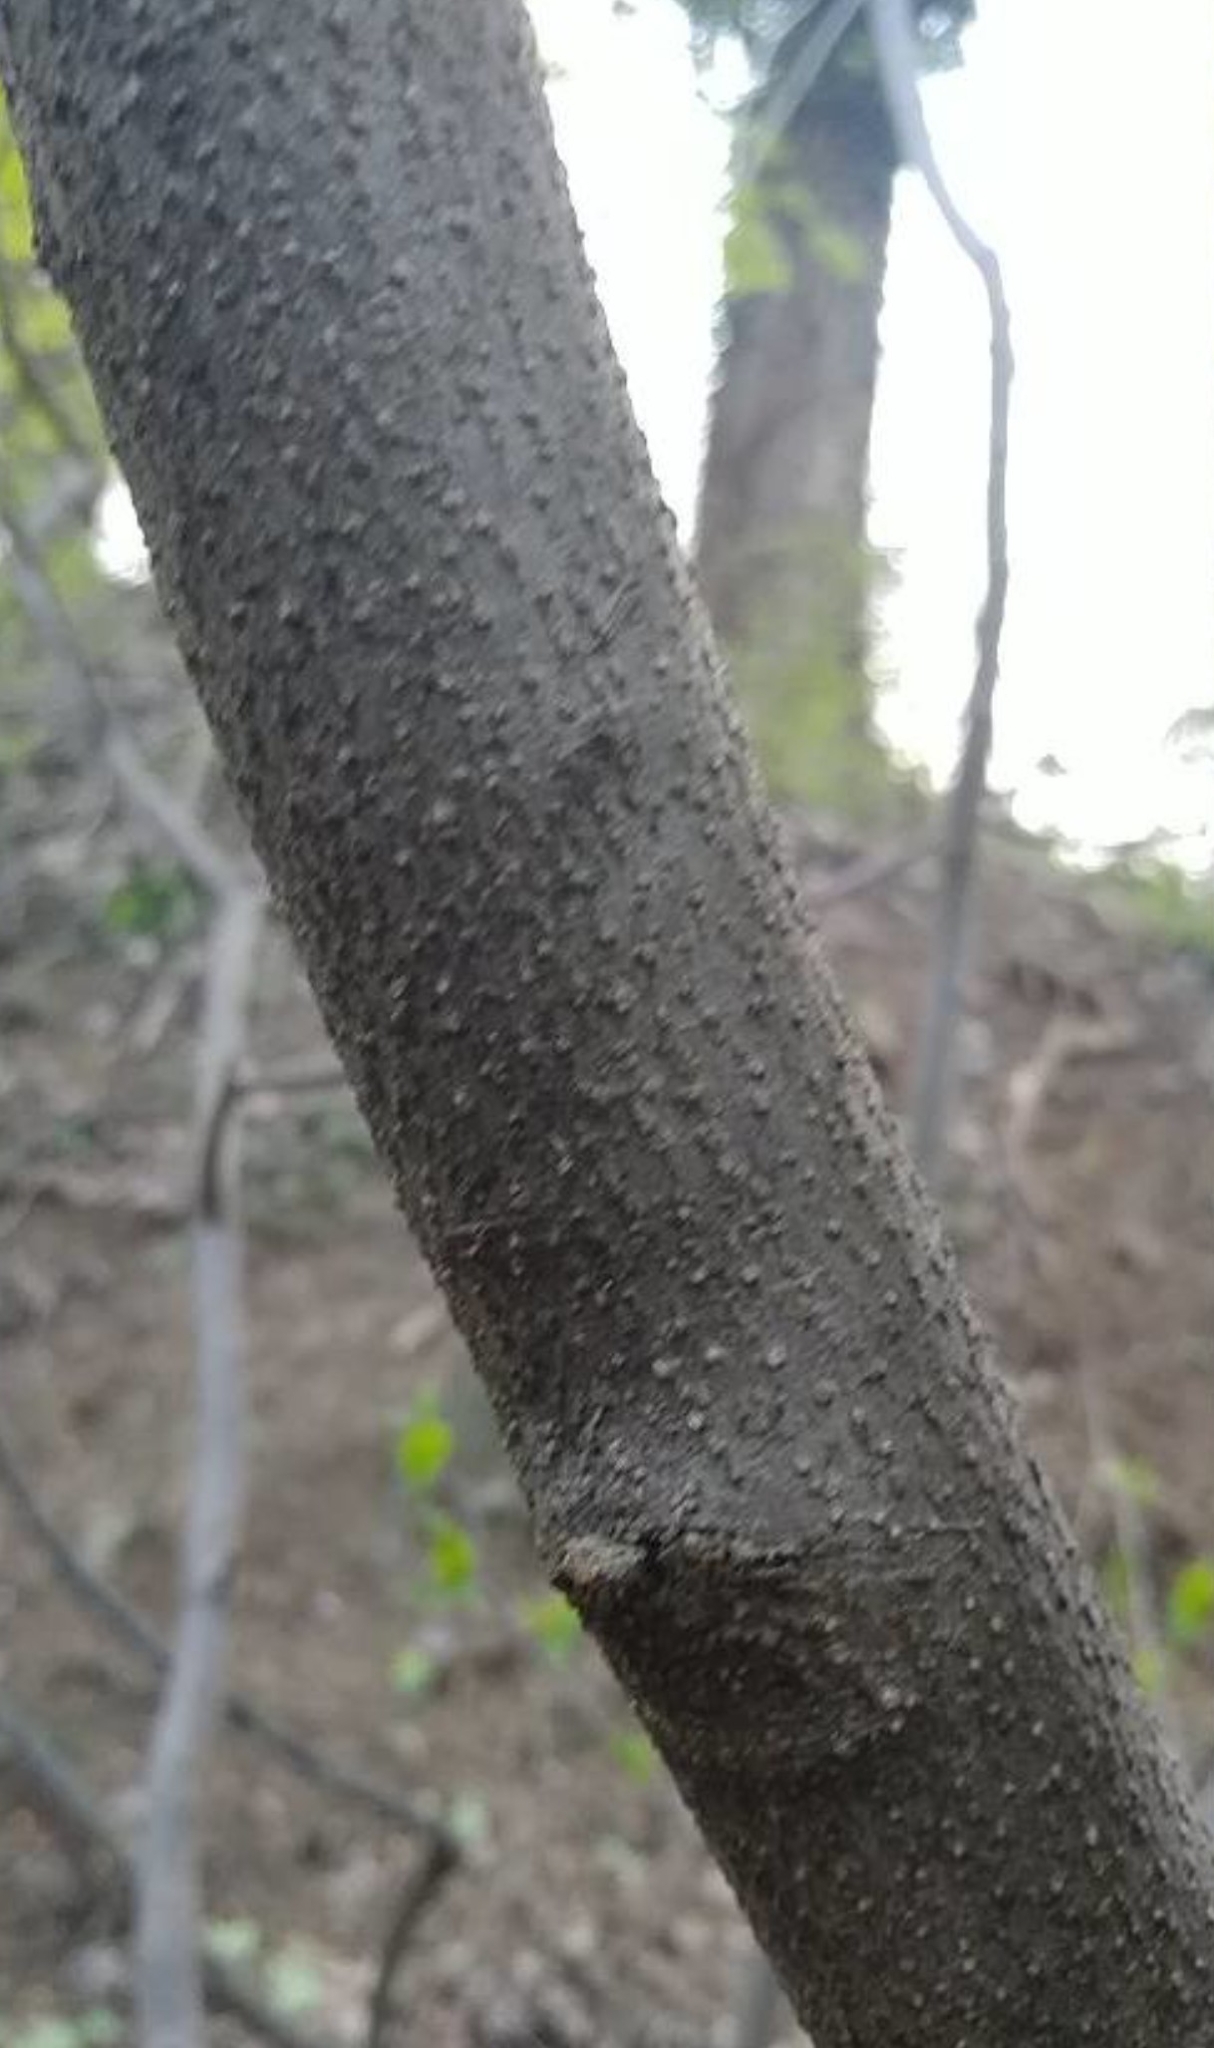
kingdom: Plantae
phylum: Tracheophyta
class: Magnoliopsida
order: Laurales
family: Lauraceae
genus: Lindera
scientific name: Lindera benzoin
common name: Spicebush
